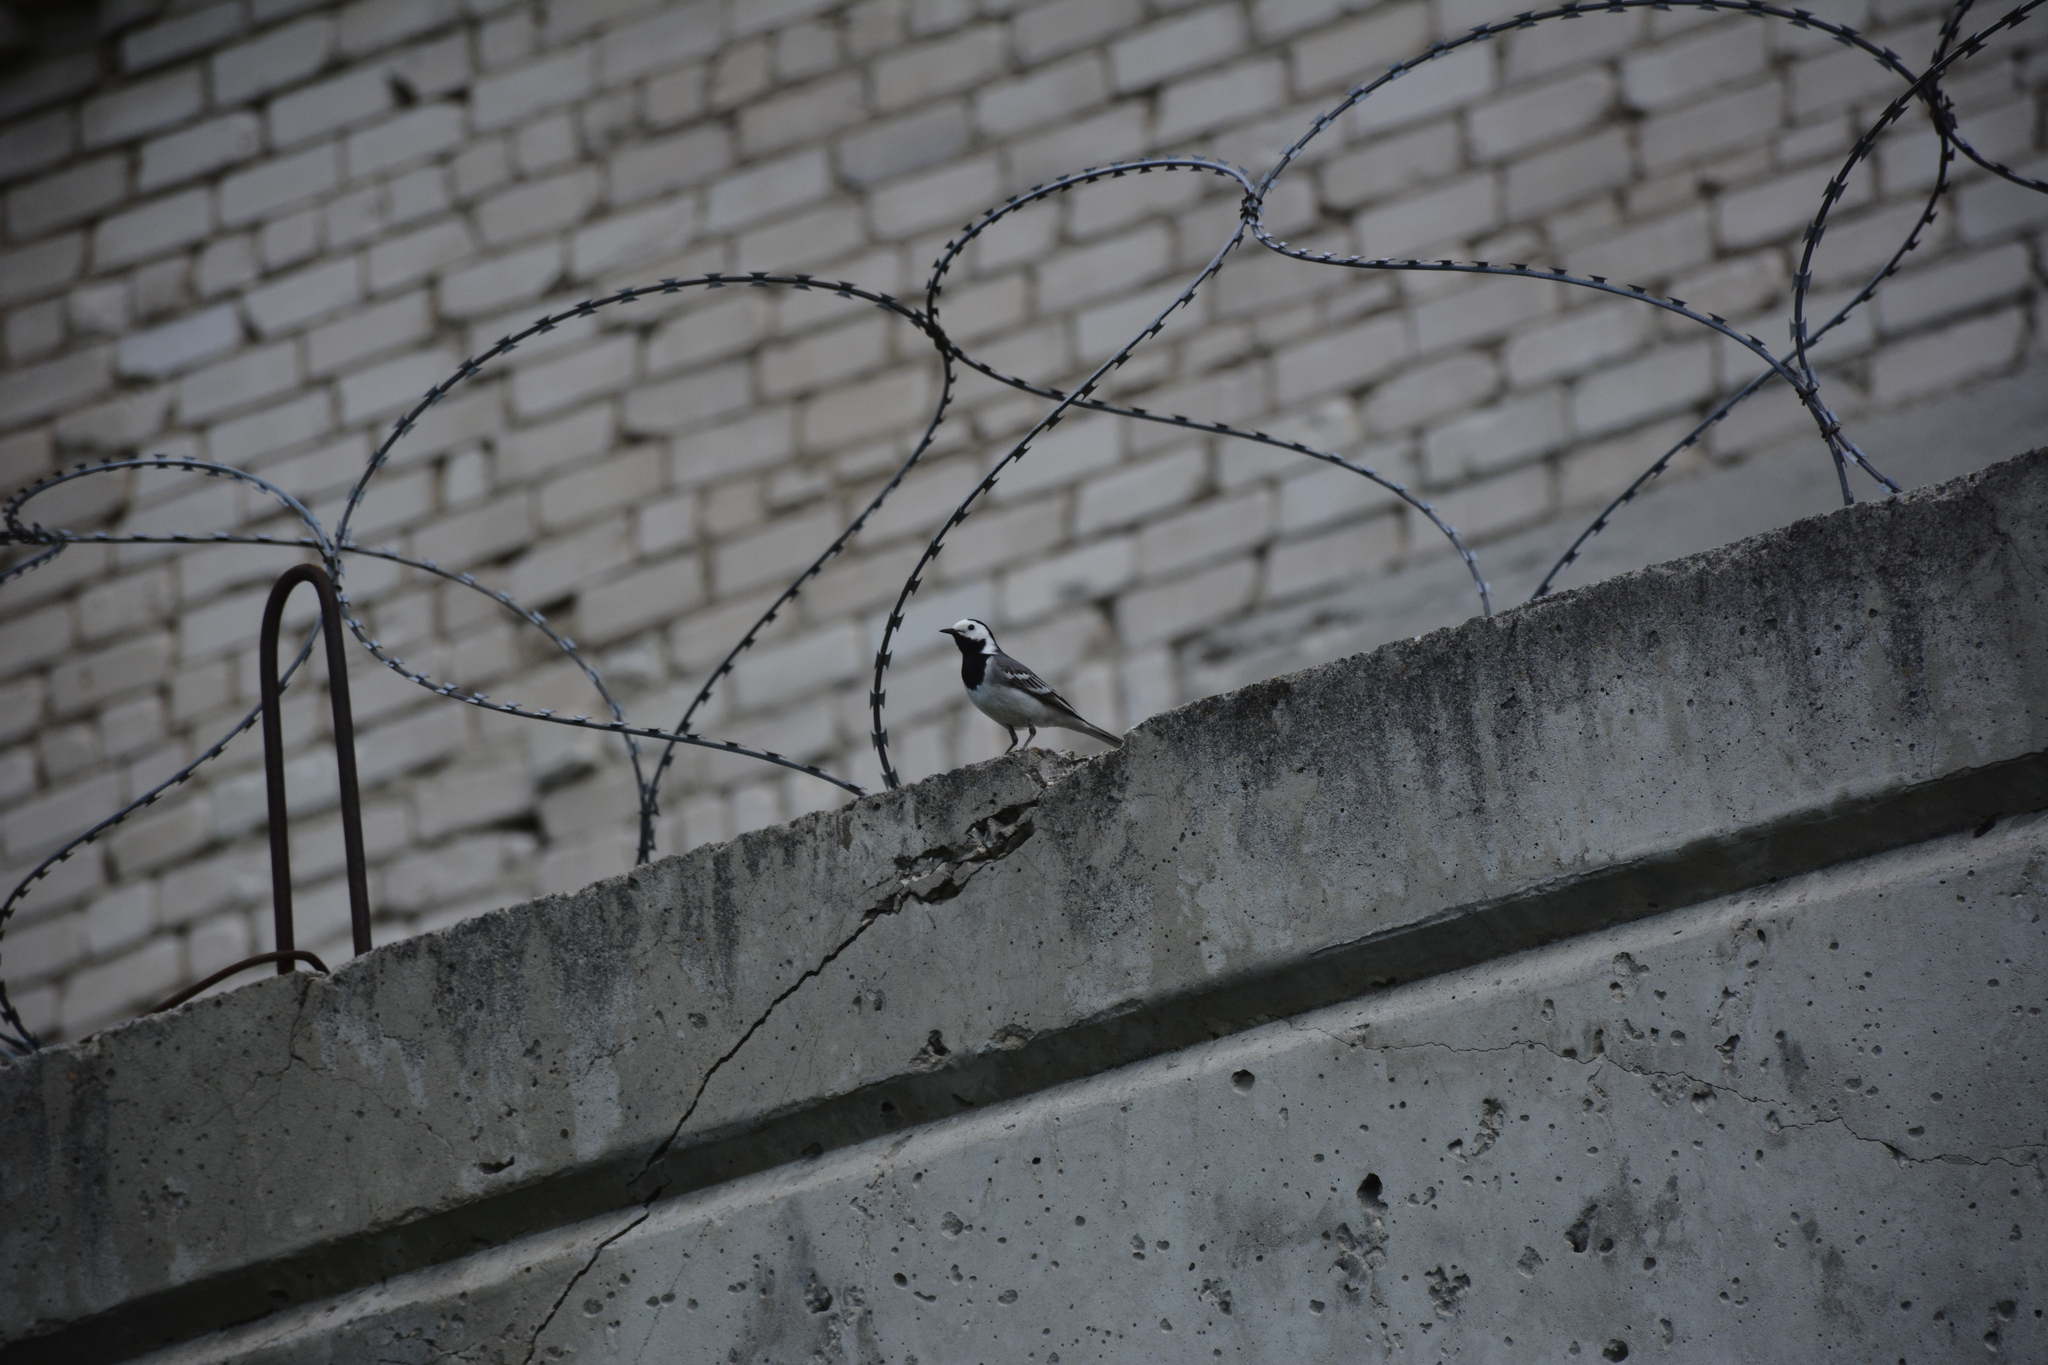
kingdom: Animalia
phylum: Chordata
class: Aves
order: Passeriformes
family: Motacillidae
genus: Motacilla
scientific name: Motacilla alba
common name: White wagtail
